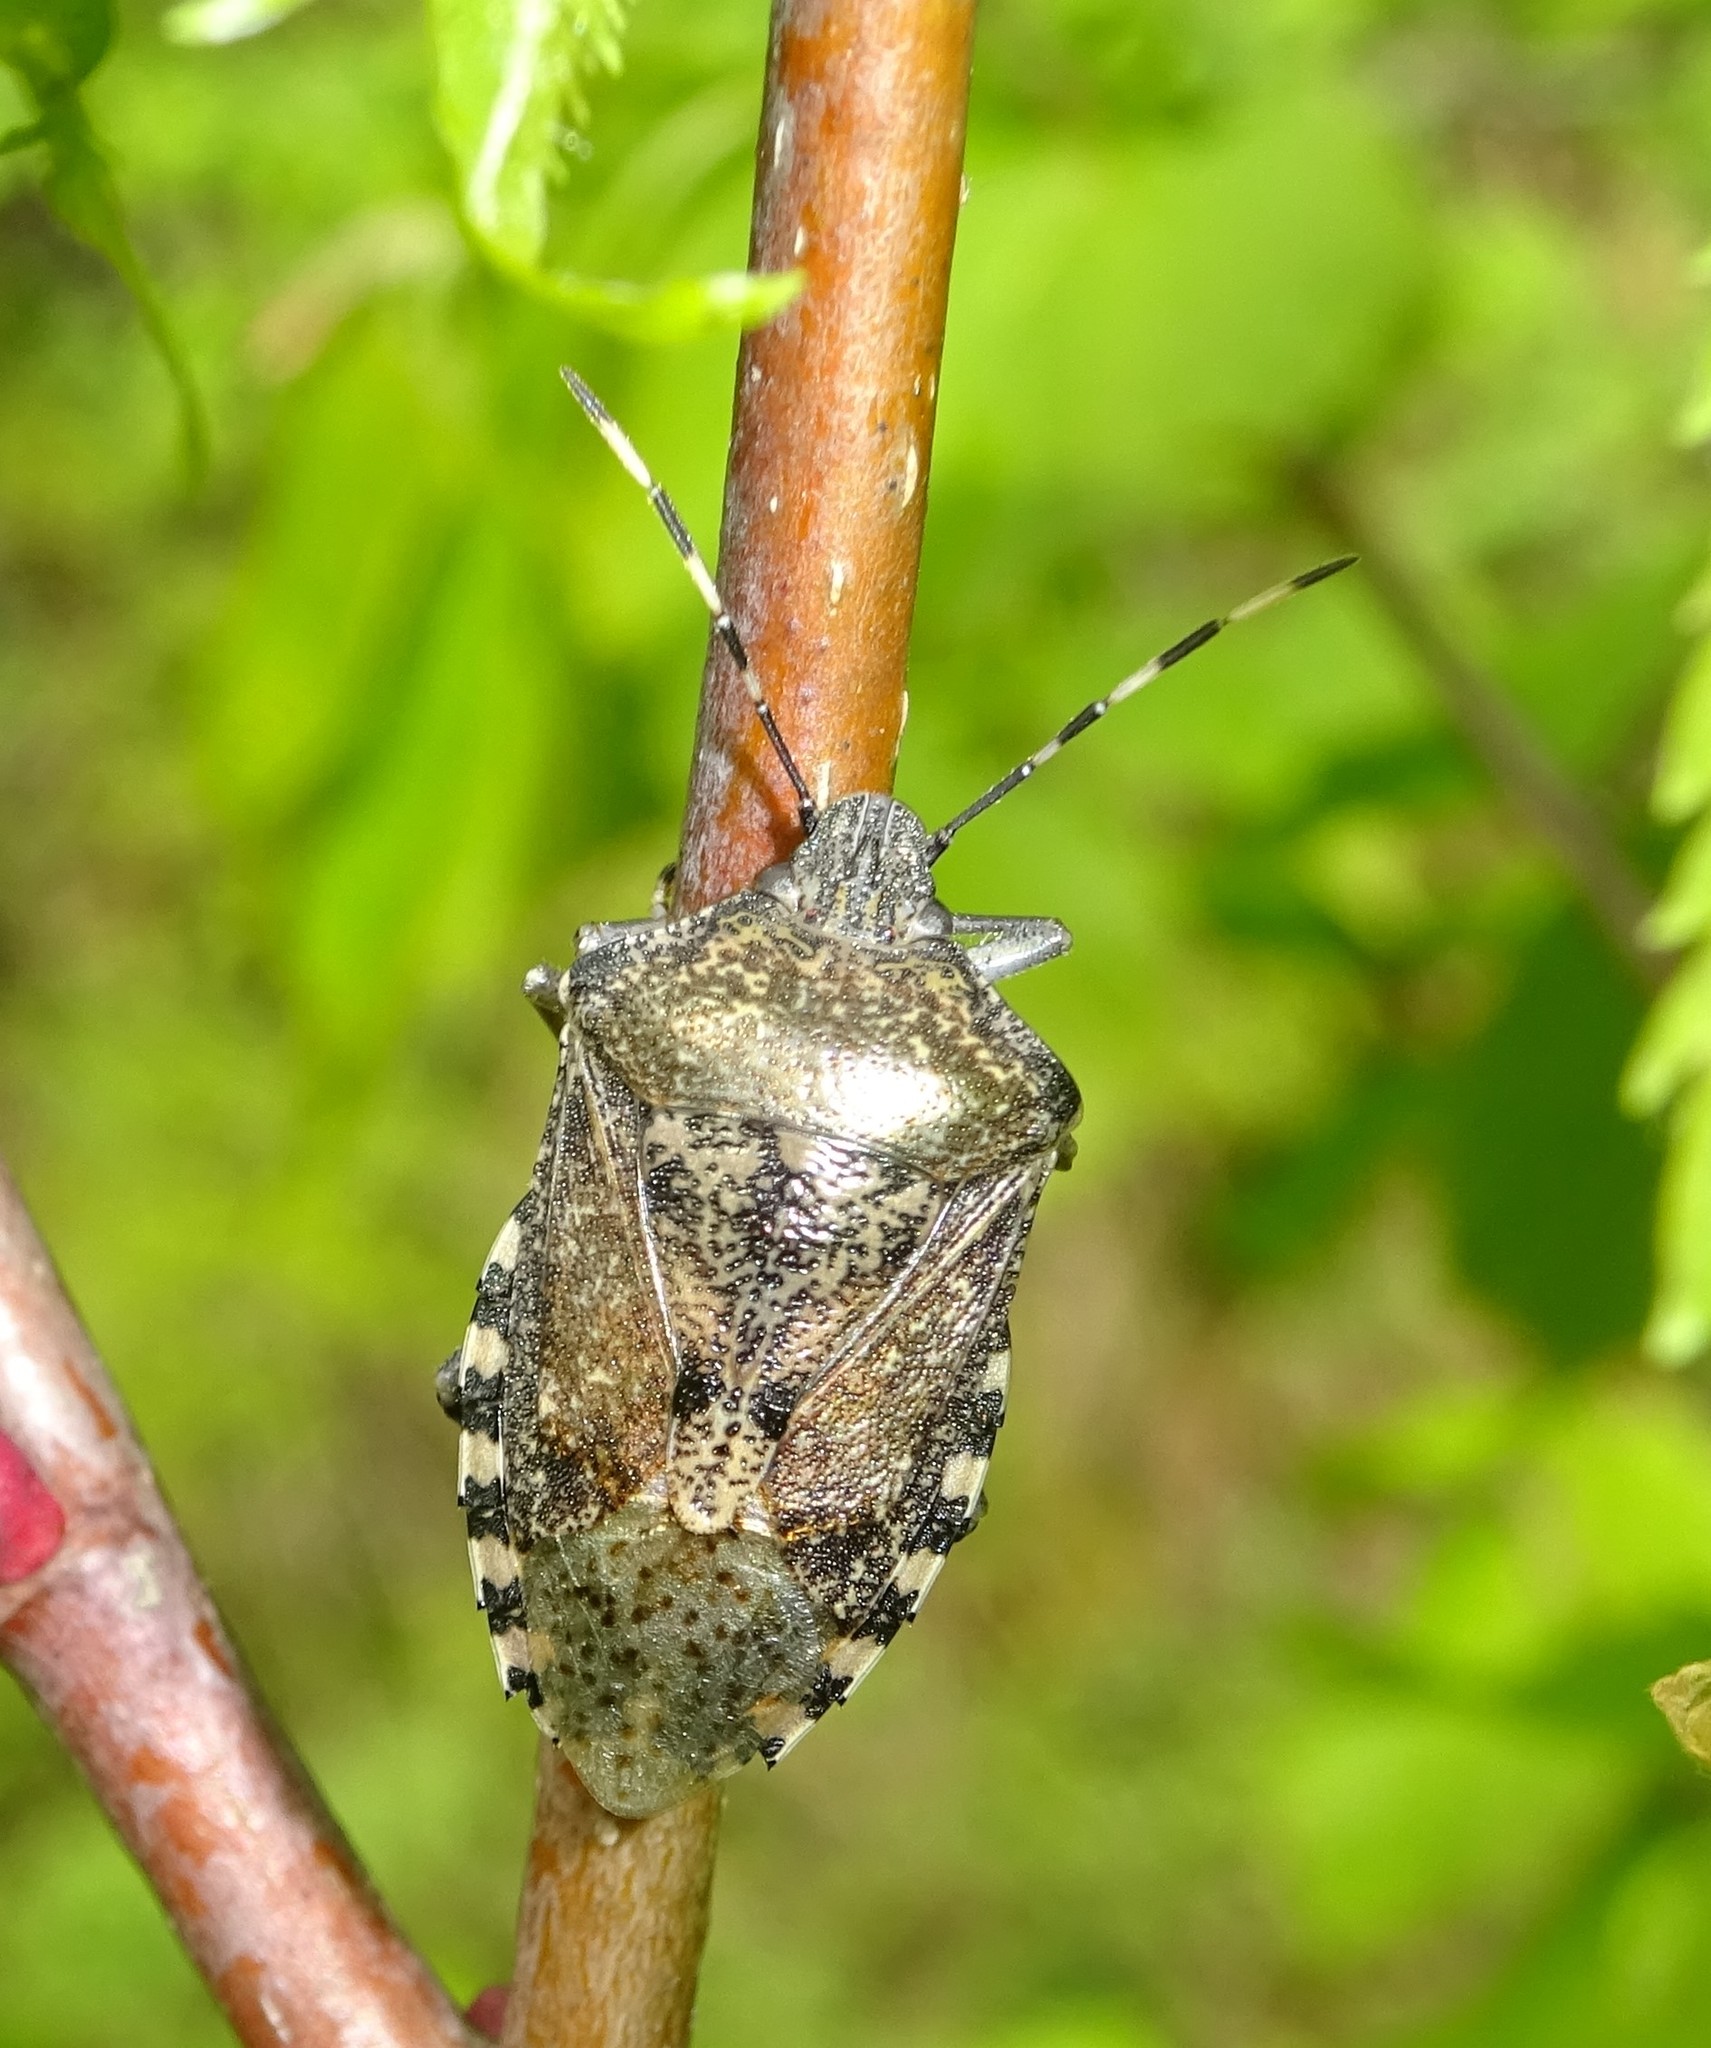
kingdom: Animalia
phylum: Arthropoda
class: Insecta
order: Hemiptera
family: Pentatomidae
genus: Rhaphigaster
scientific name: Rhaphigaster nebulosa
